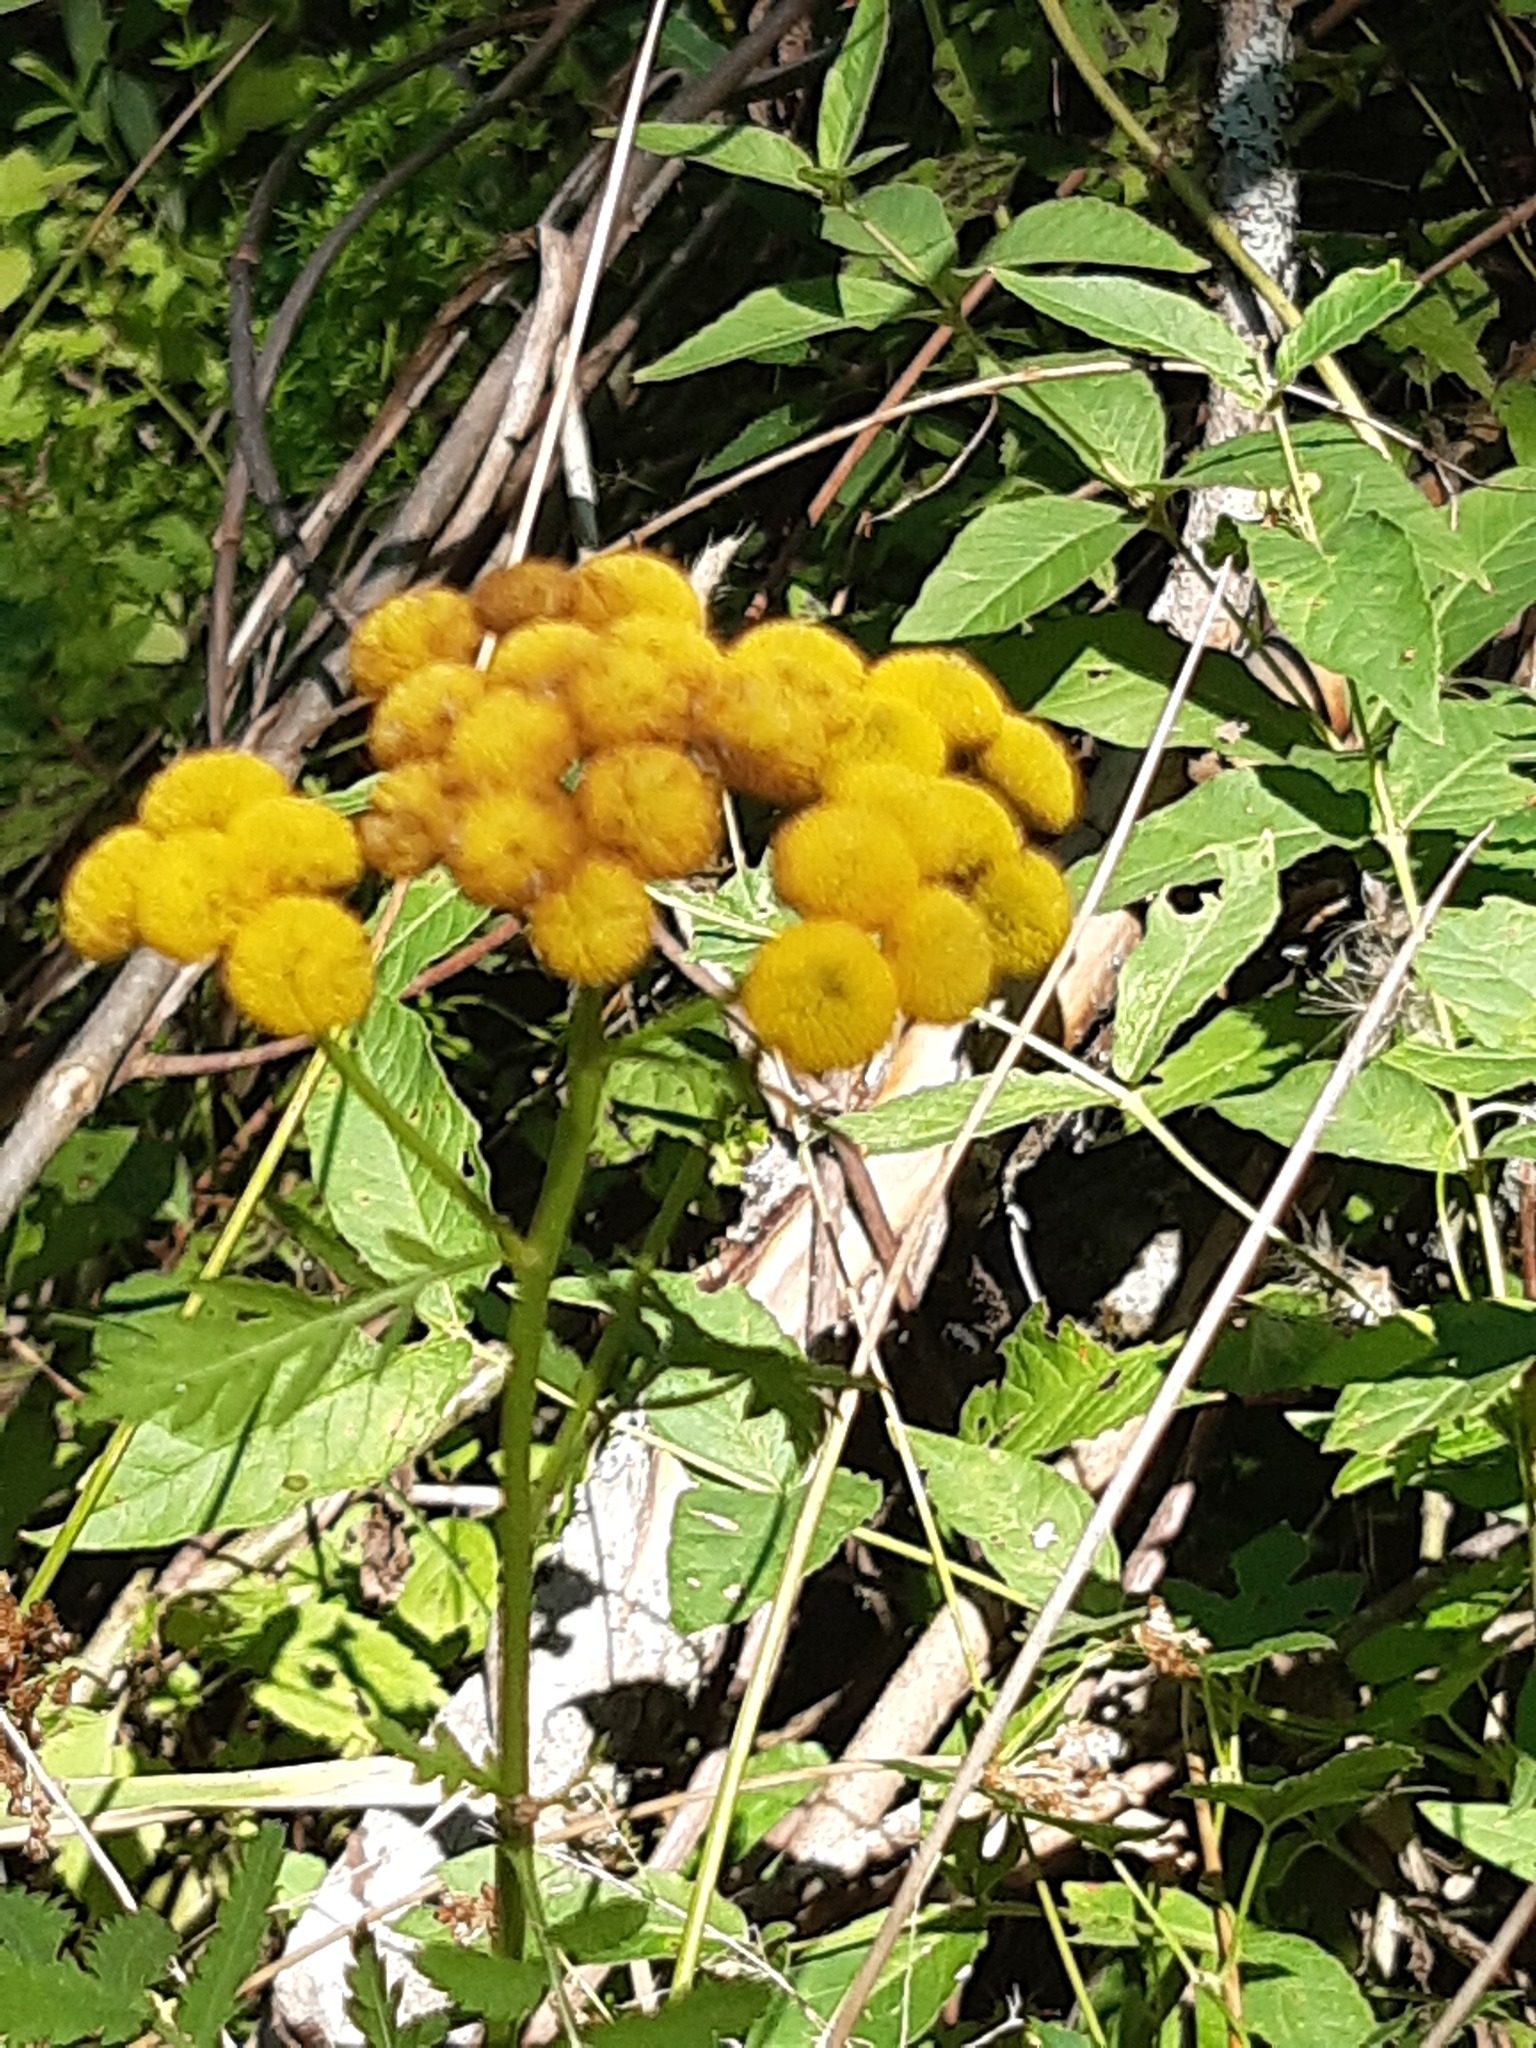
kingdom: Plantae
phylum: Tracheophyta
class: Magnoliopsida
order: Asterales
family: Asteraceae
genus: Tanacetum
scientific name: Tanacetum vulgare
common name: Common tansy
